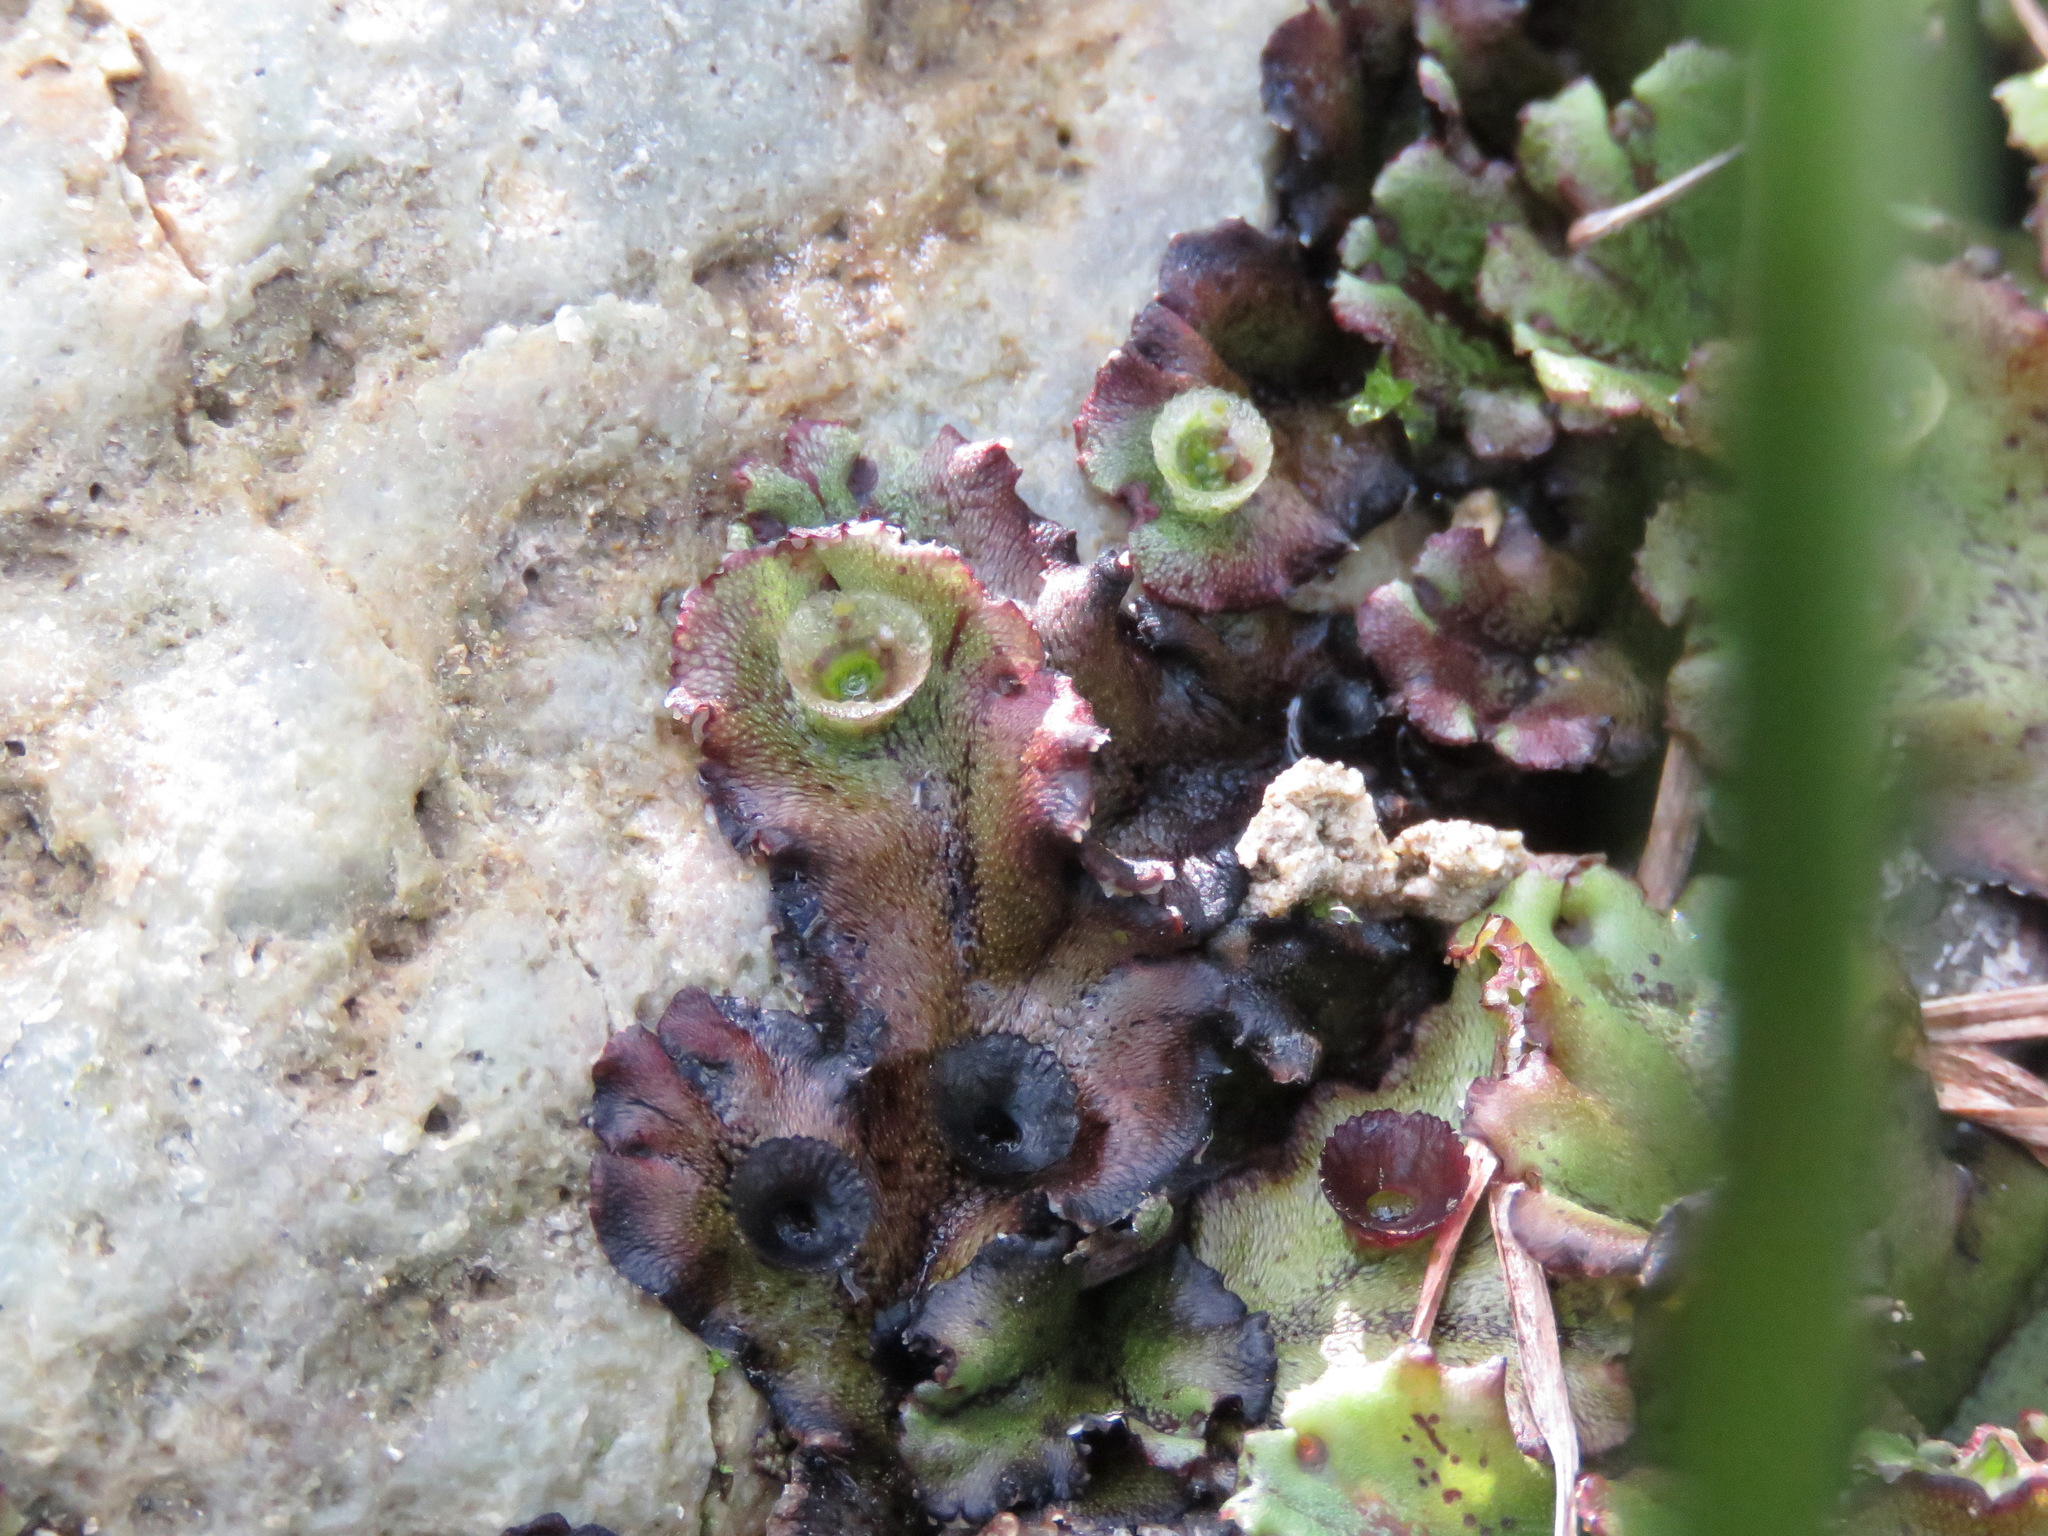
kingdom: Plantae
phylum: Marchantiophyta
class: Marchantiopsida
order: Marchantiales
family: Marchantiaceae
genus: Marchantia
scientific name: Marchantia polymorpha
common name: Common liverwort
